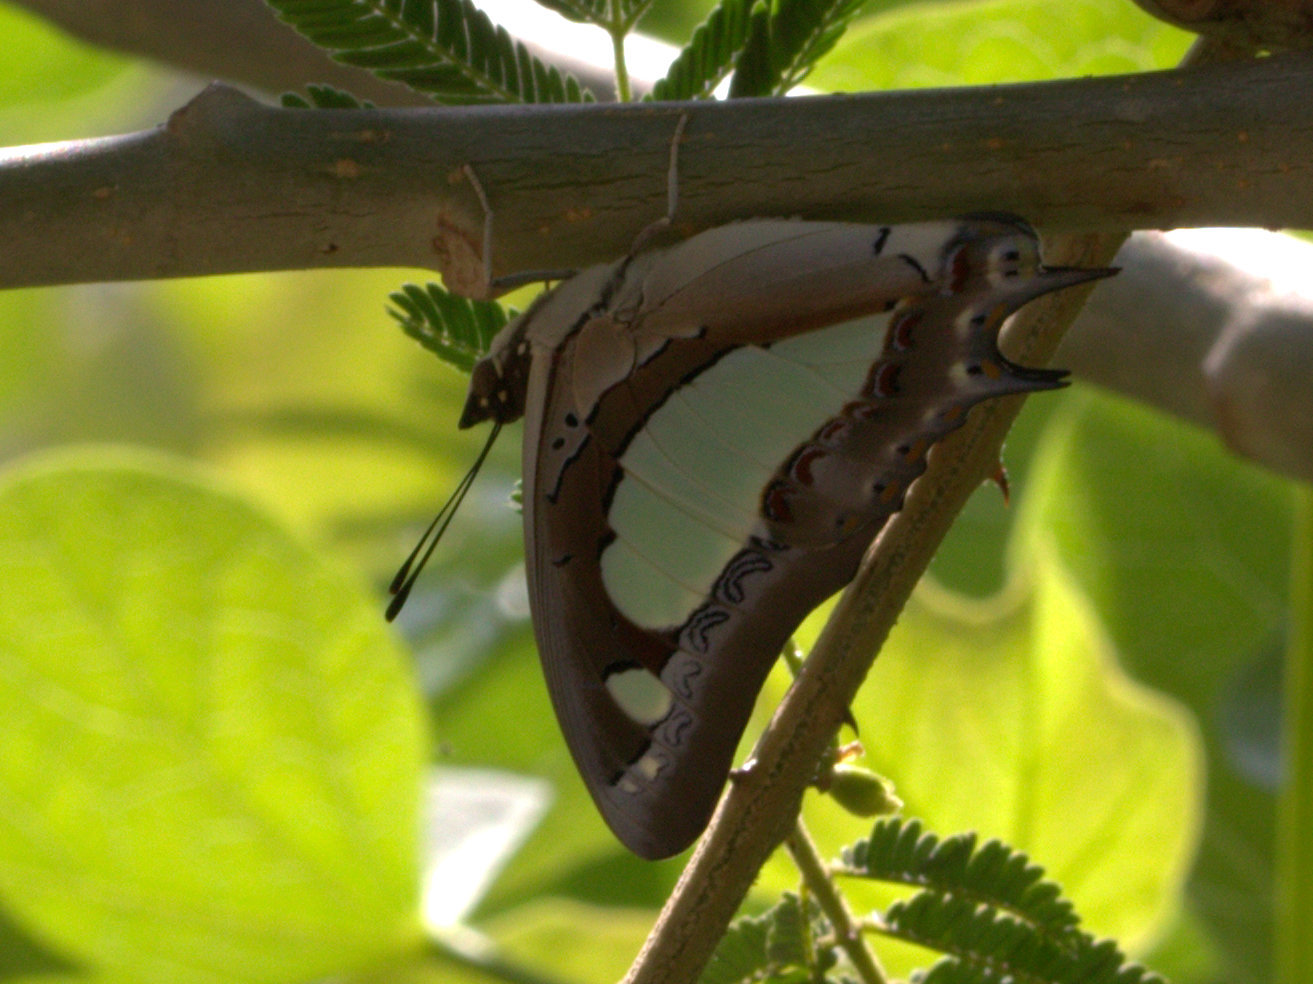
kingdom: Animalia
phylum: Arthropoda
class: Insecta
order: Lepidoptera
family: Nymphalidae
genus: Polyura
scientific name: Polyura agrarius
